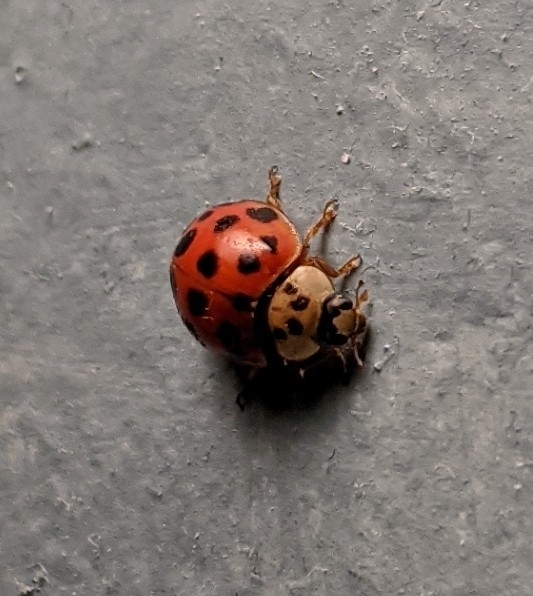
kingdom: Animalia
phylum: Arthropoda
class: Insecta
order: Coleoptera
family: Coccinellidae
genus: Harmonia
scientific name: Harmonia axyridis
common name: Harlequin ladybird
